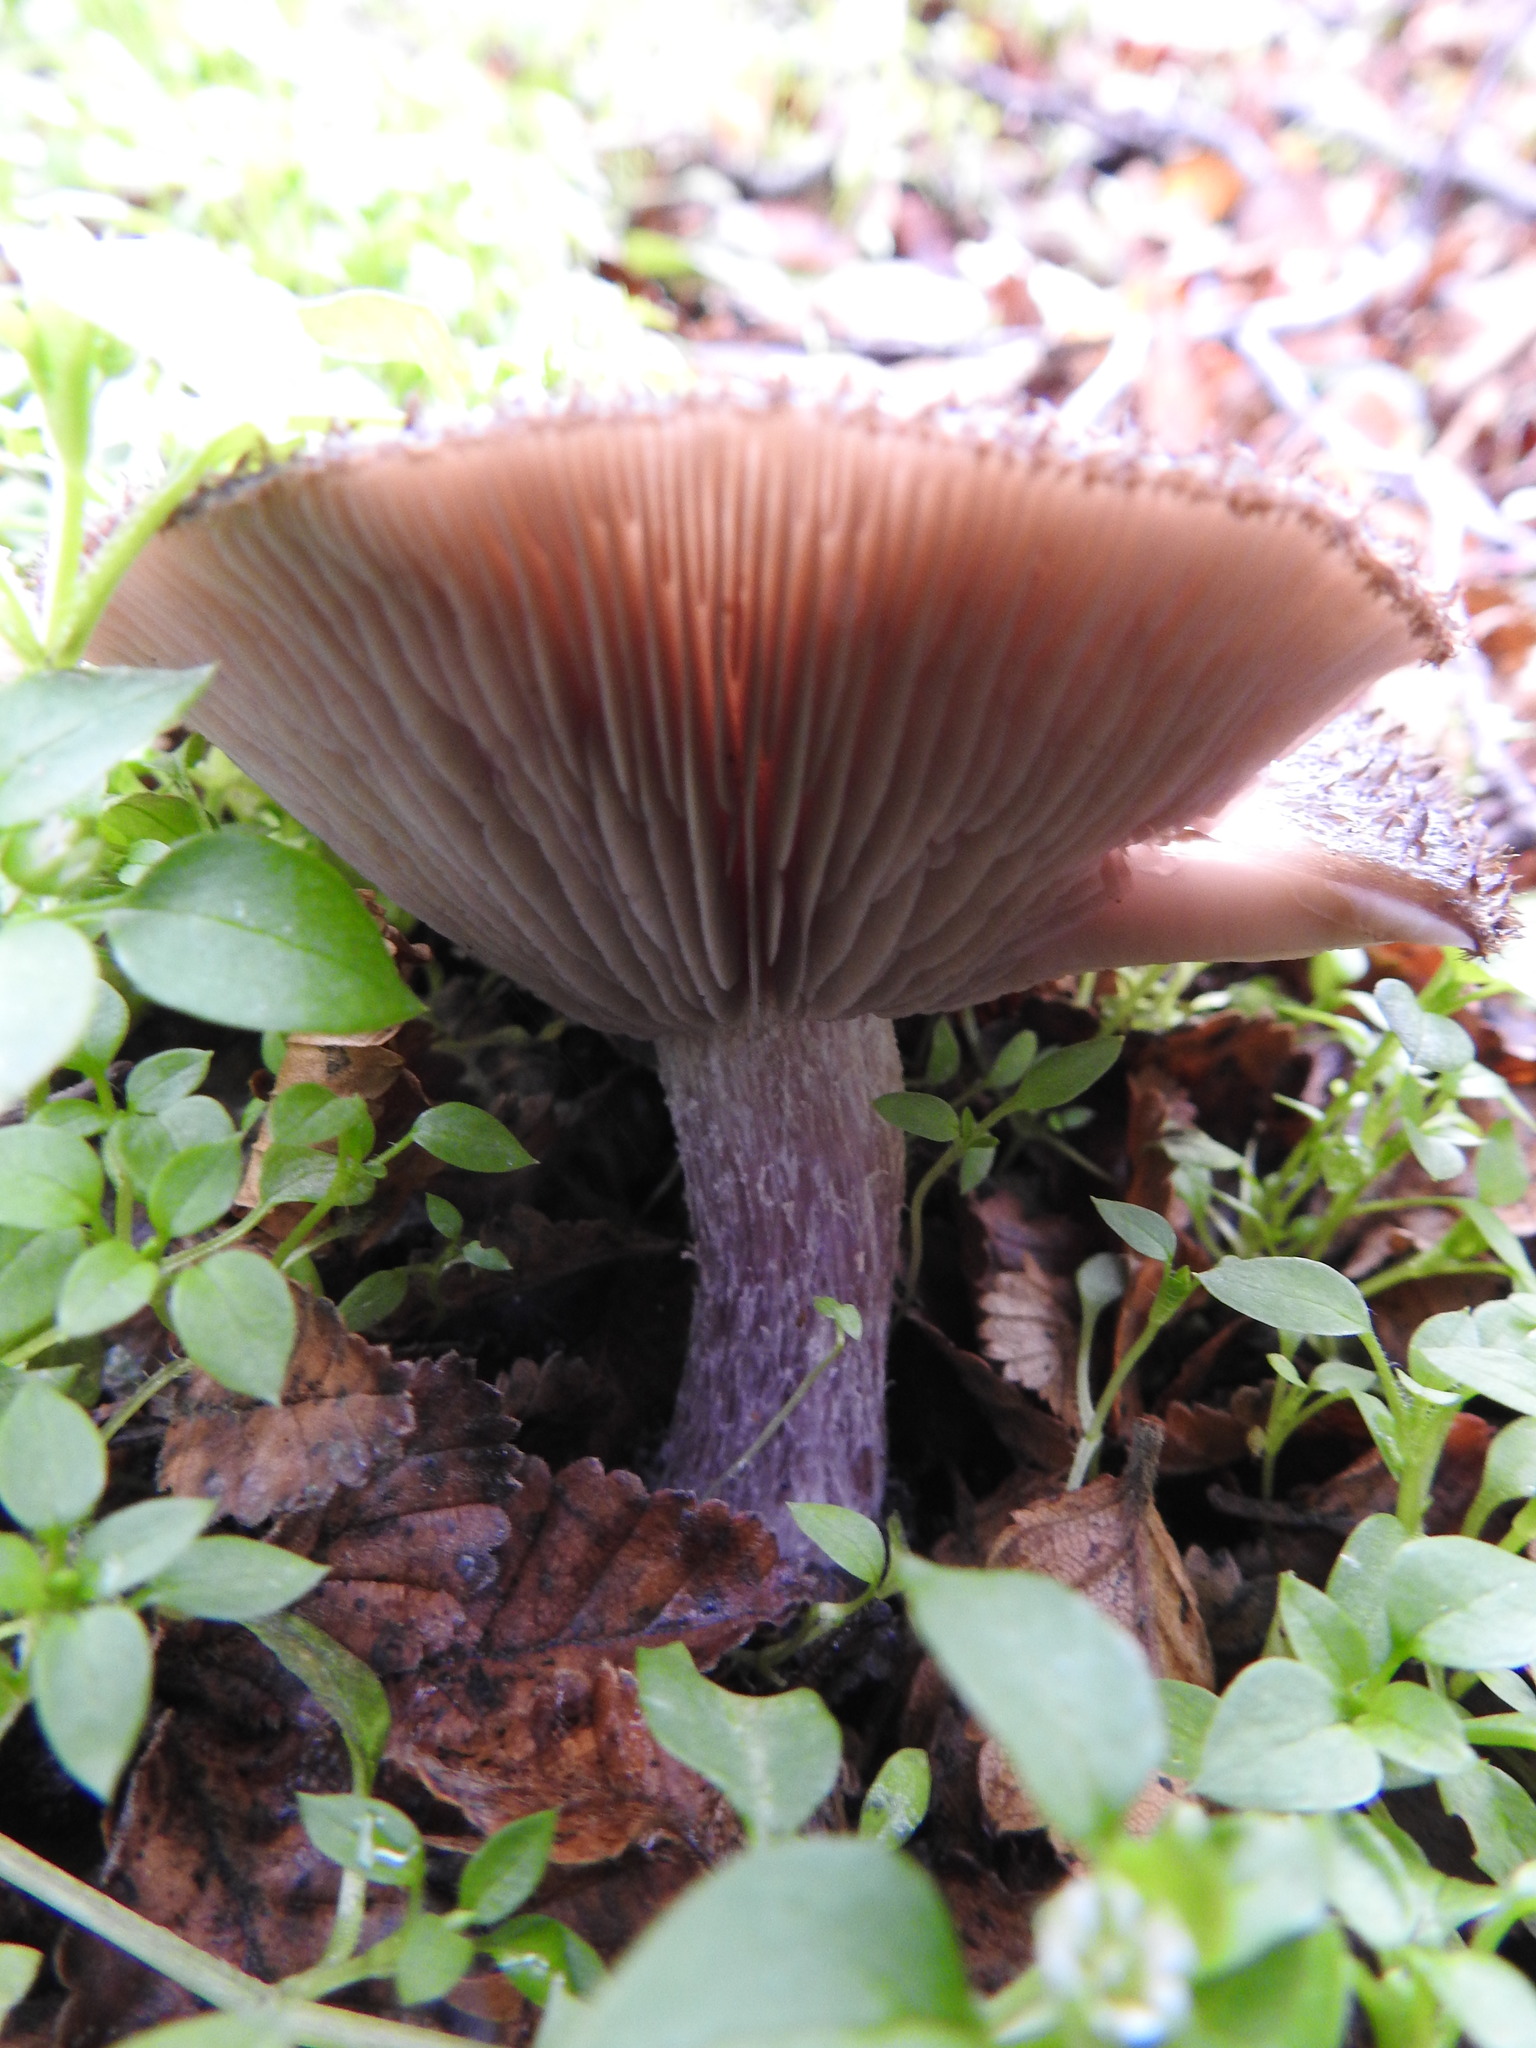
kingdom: Fungi
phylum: Basidiomycota
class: Agaricomycetes
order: Agaricales
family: Tricholomataceae
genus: Collybia
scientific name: Collybia
